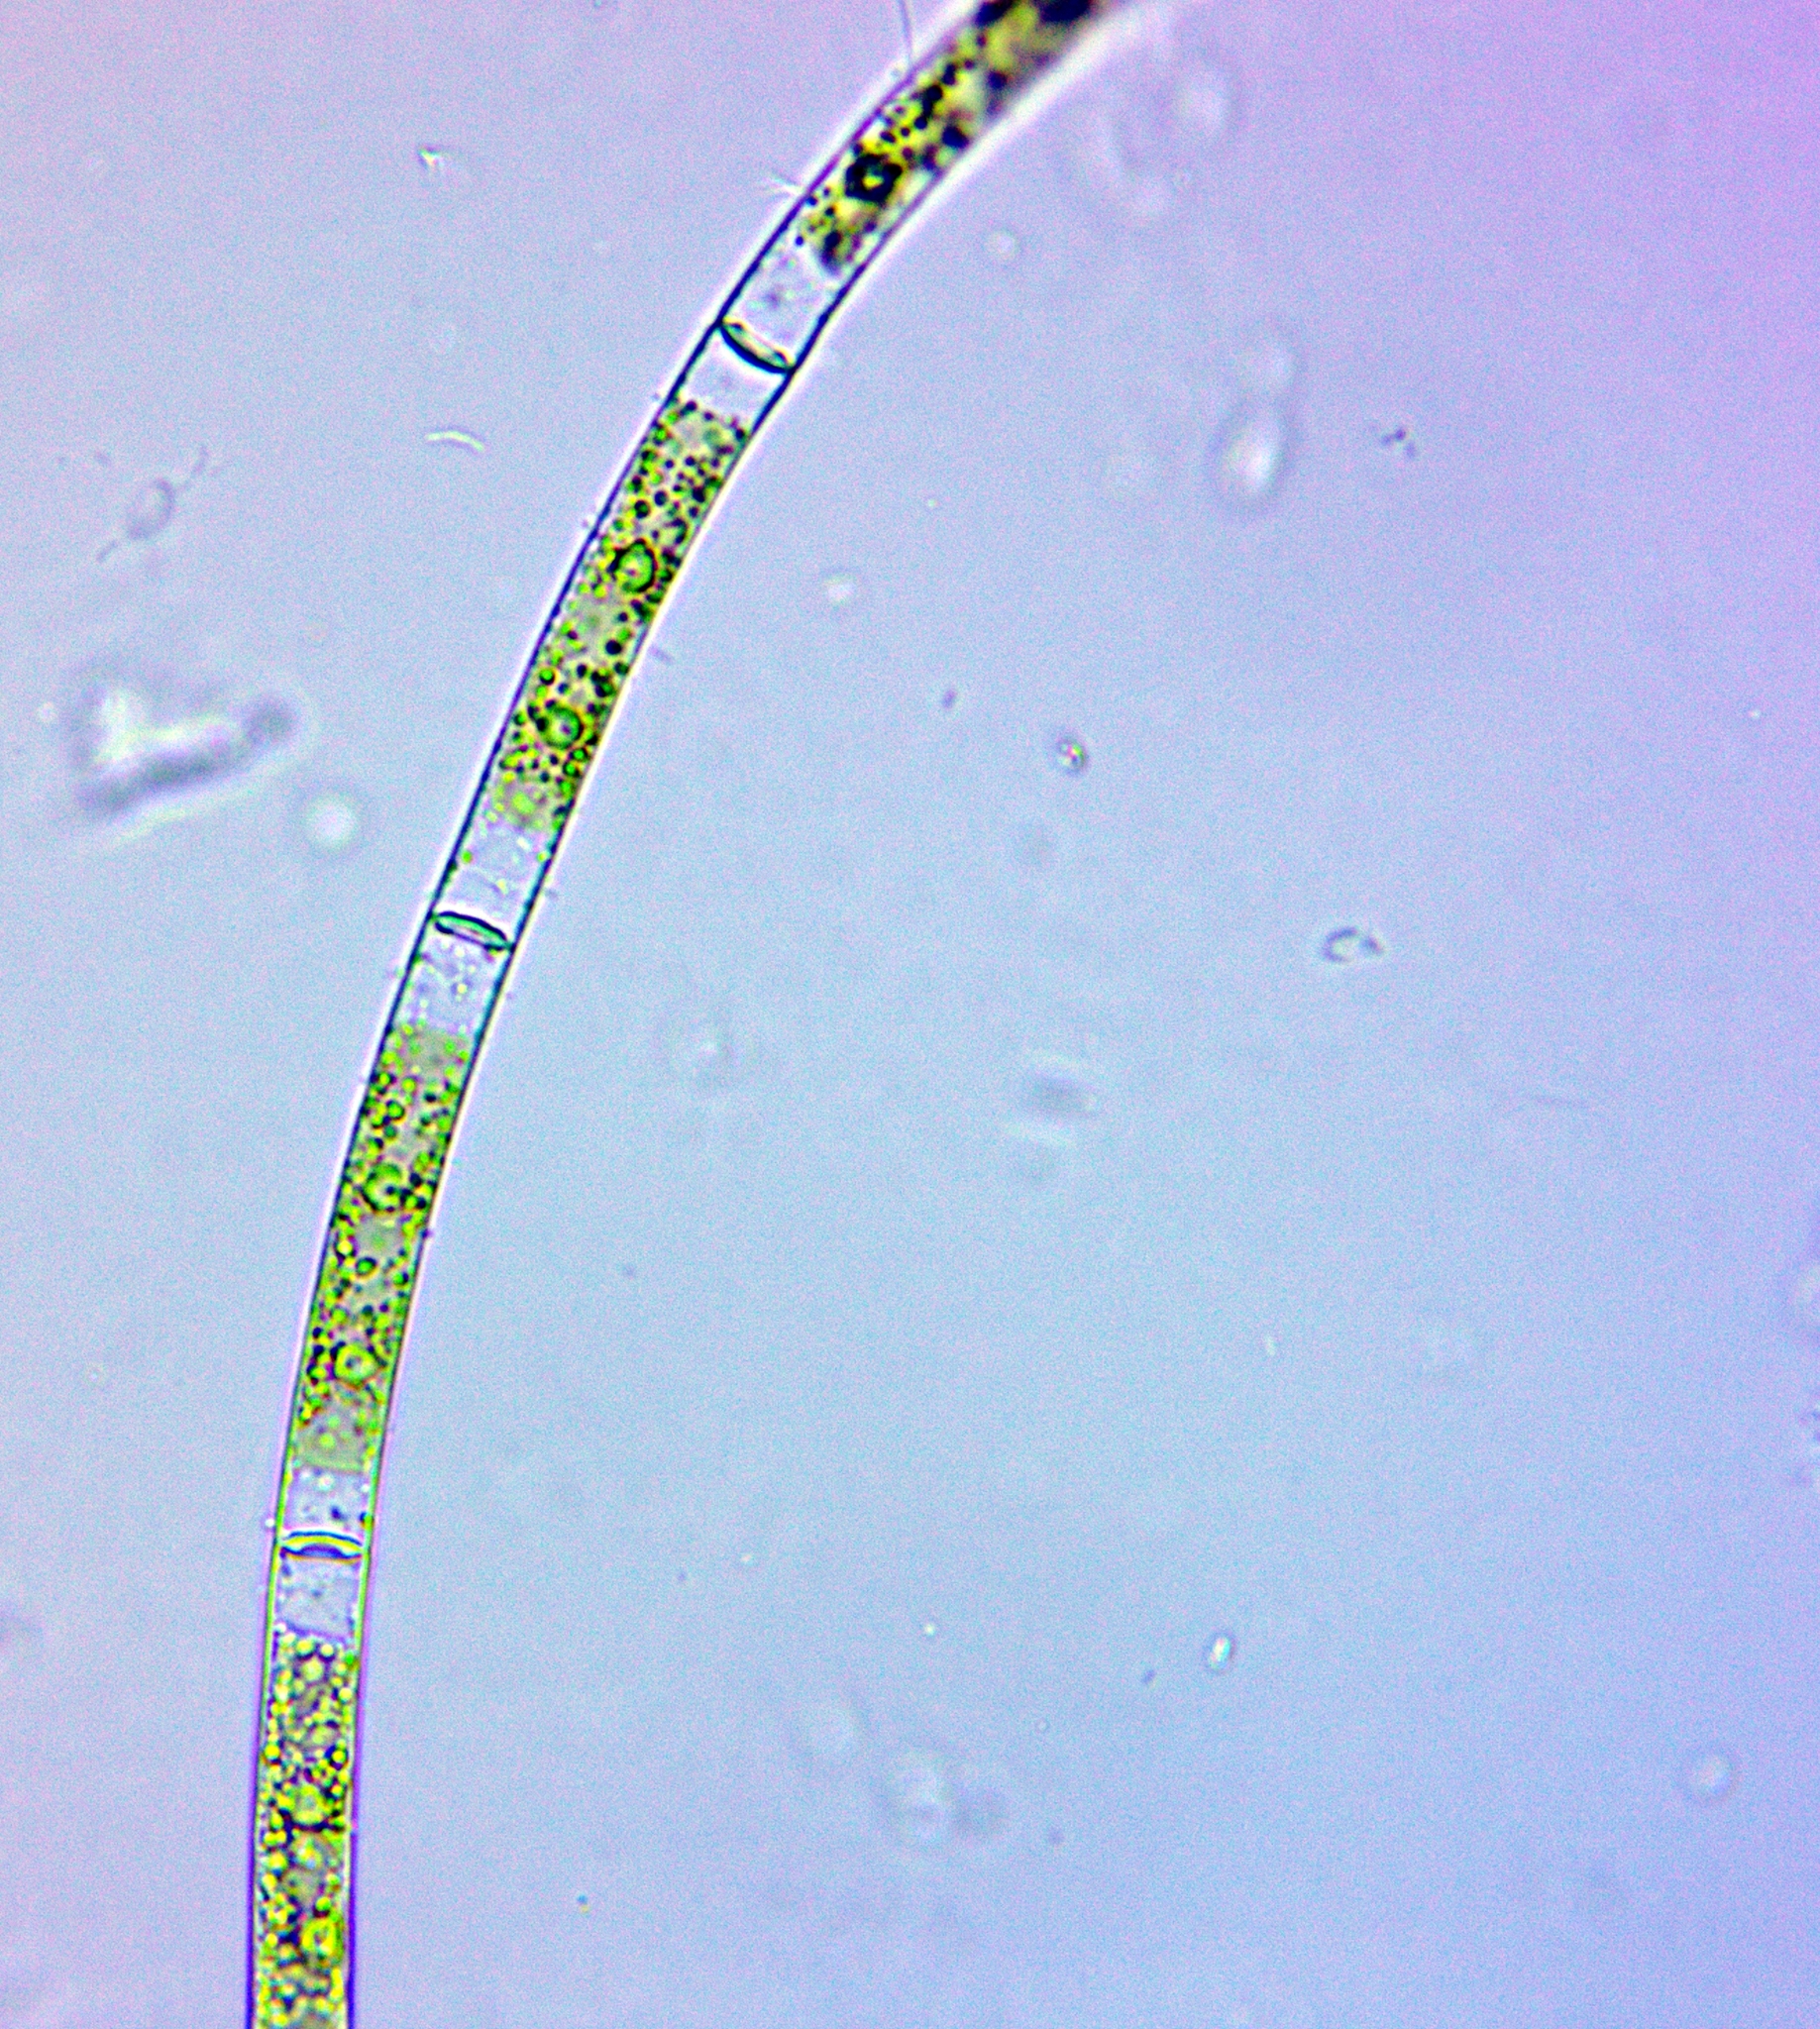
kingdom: Plantae
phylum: Charophyta
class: Zygnematophyceae
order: Zygnematales
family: Zygnemataceae
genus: Mougeotia
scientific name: Mougeotia
